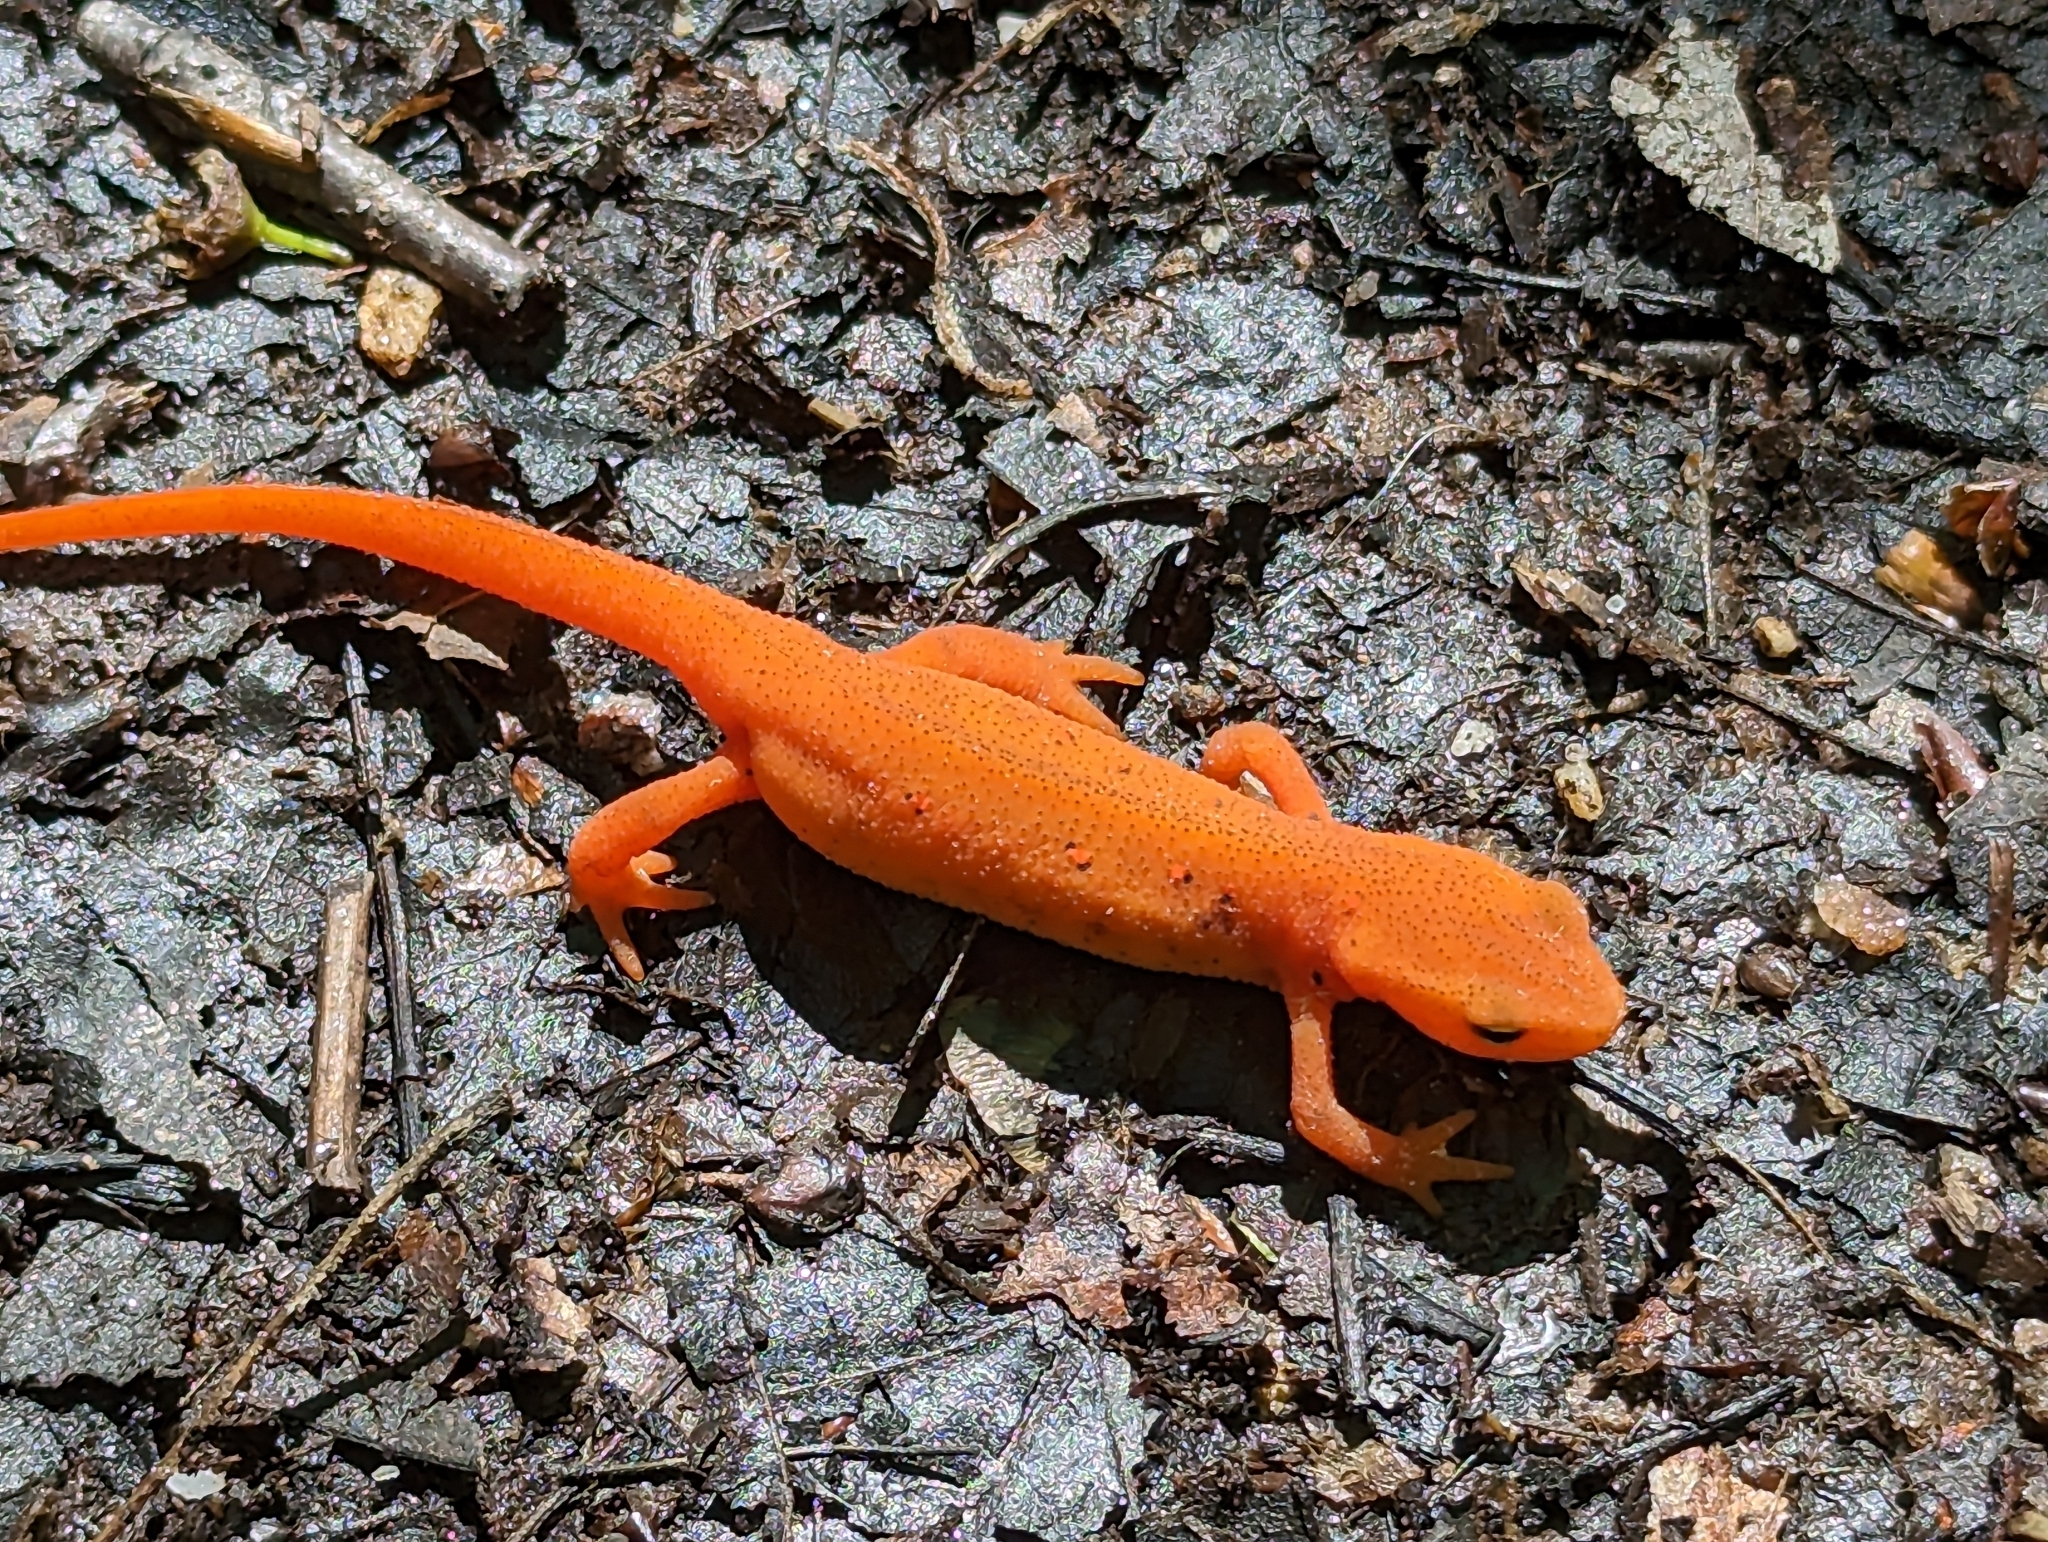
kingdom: Animalia
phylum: Chordata
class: Amphibia
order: Caudata
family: Salamandridae
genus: Notophthalmus
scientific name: Notophthalmus viridescens
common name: Eastern newt
